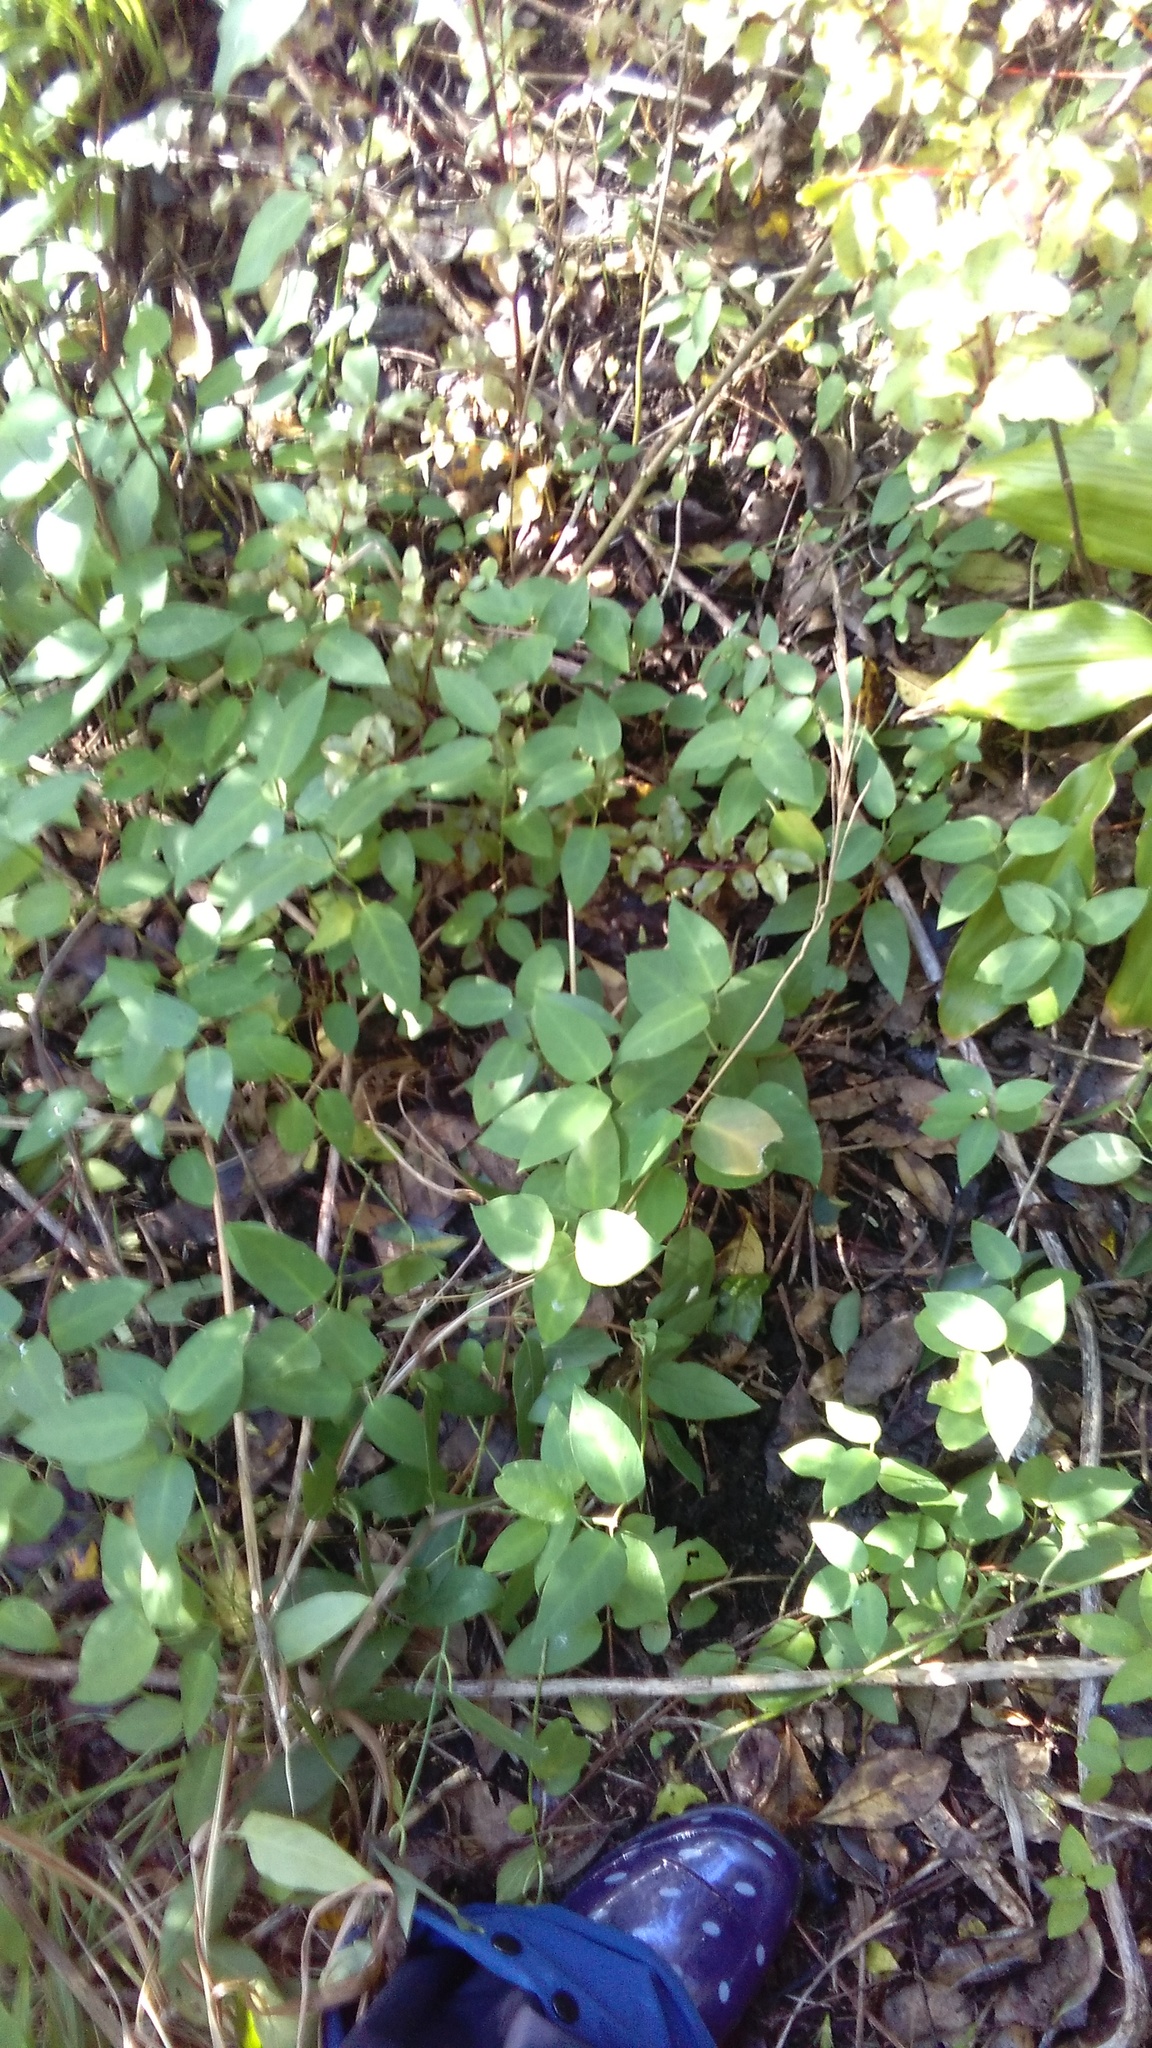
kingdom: Plantae
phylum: Tracheophyta
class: Magnoliopsida
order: Gentianales
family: Apocynaceae
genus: Araujia
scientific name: Araujia sericifera
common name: White bladderflower
